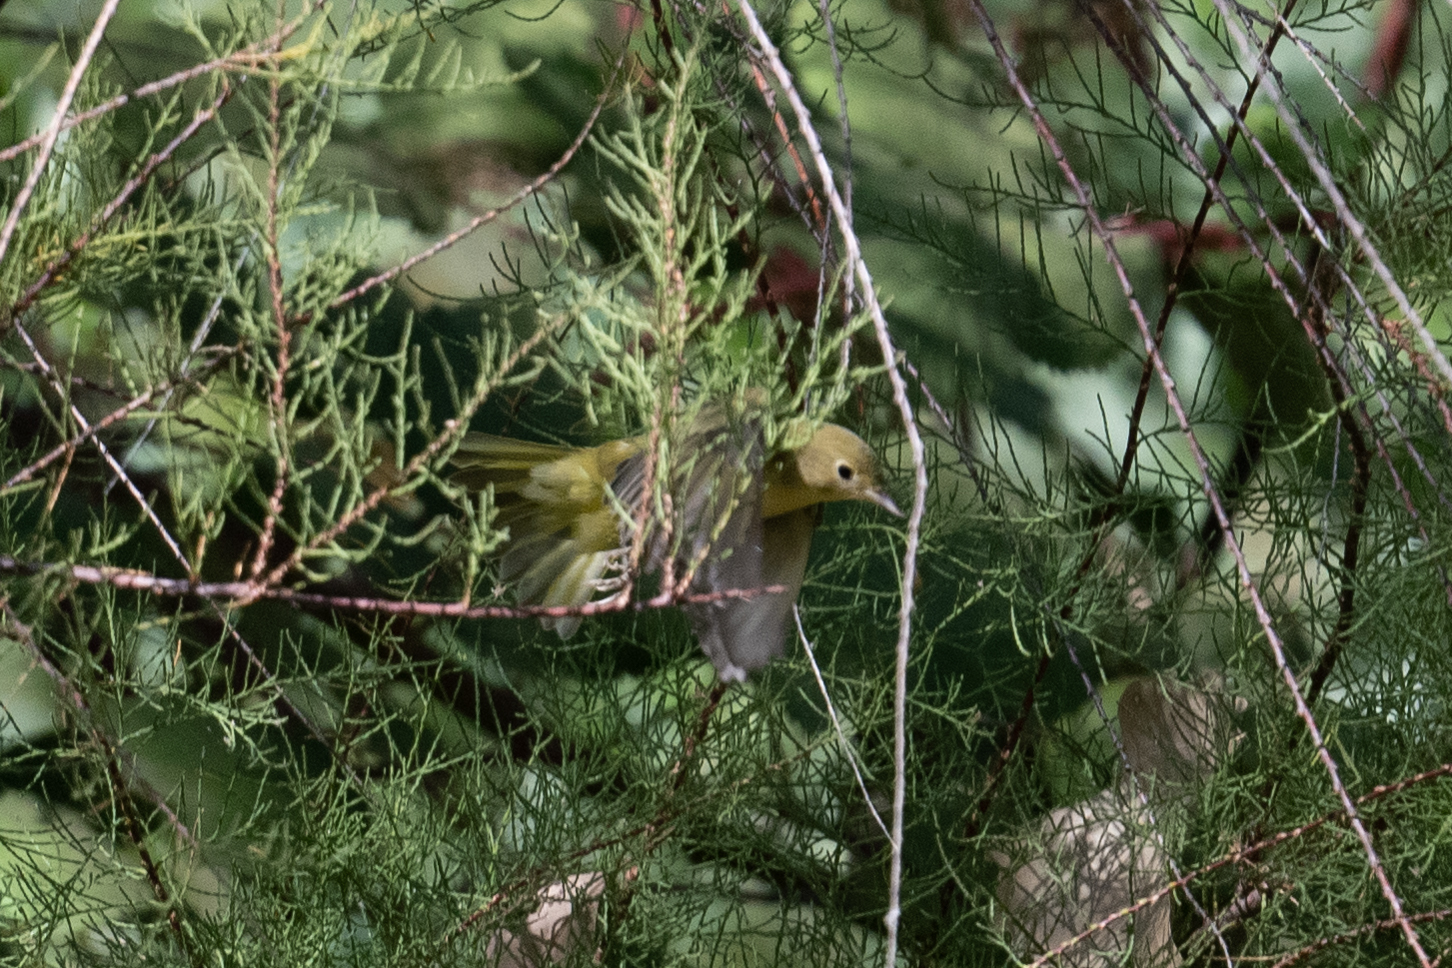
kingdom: Animalia
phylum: Chordata
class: Aves
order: Passeriformes
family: Parulidae
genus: Setophaga
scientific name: Setophaga petechia
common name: Yellow warbler
